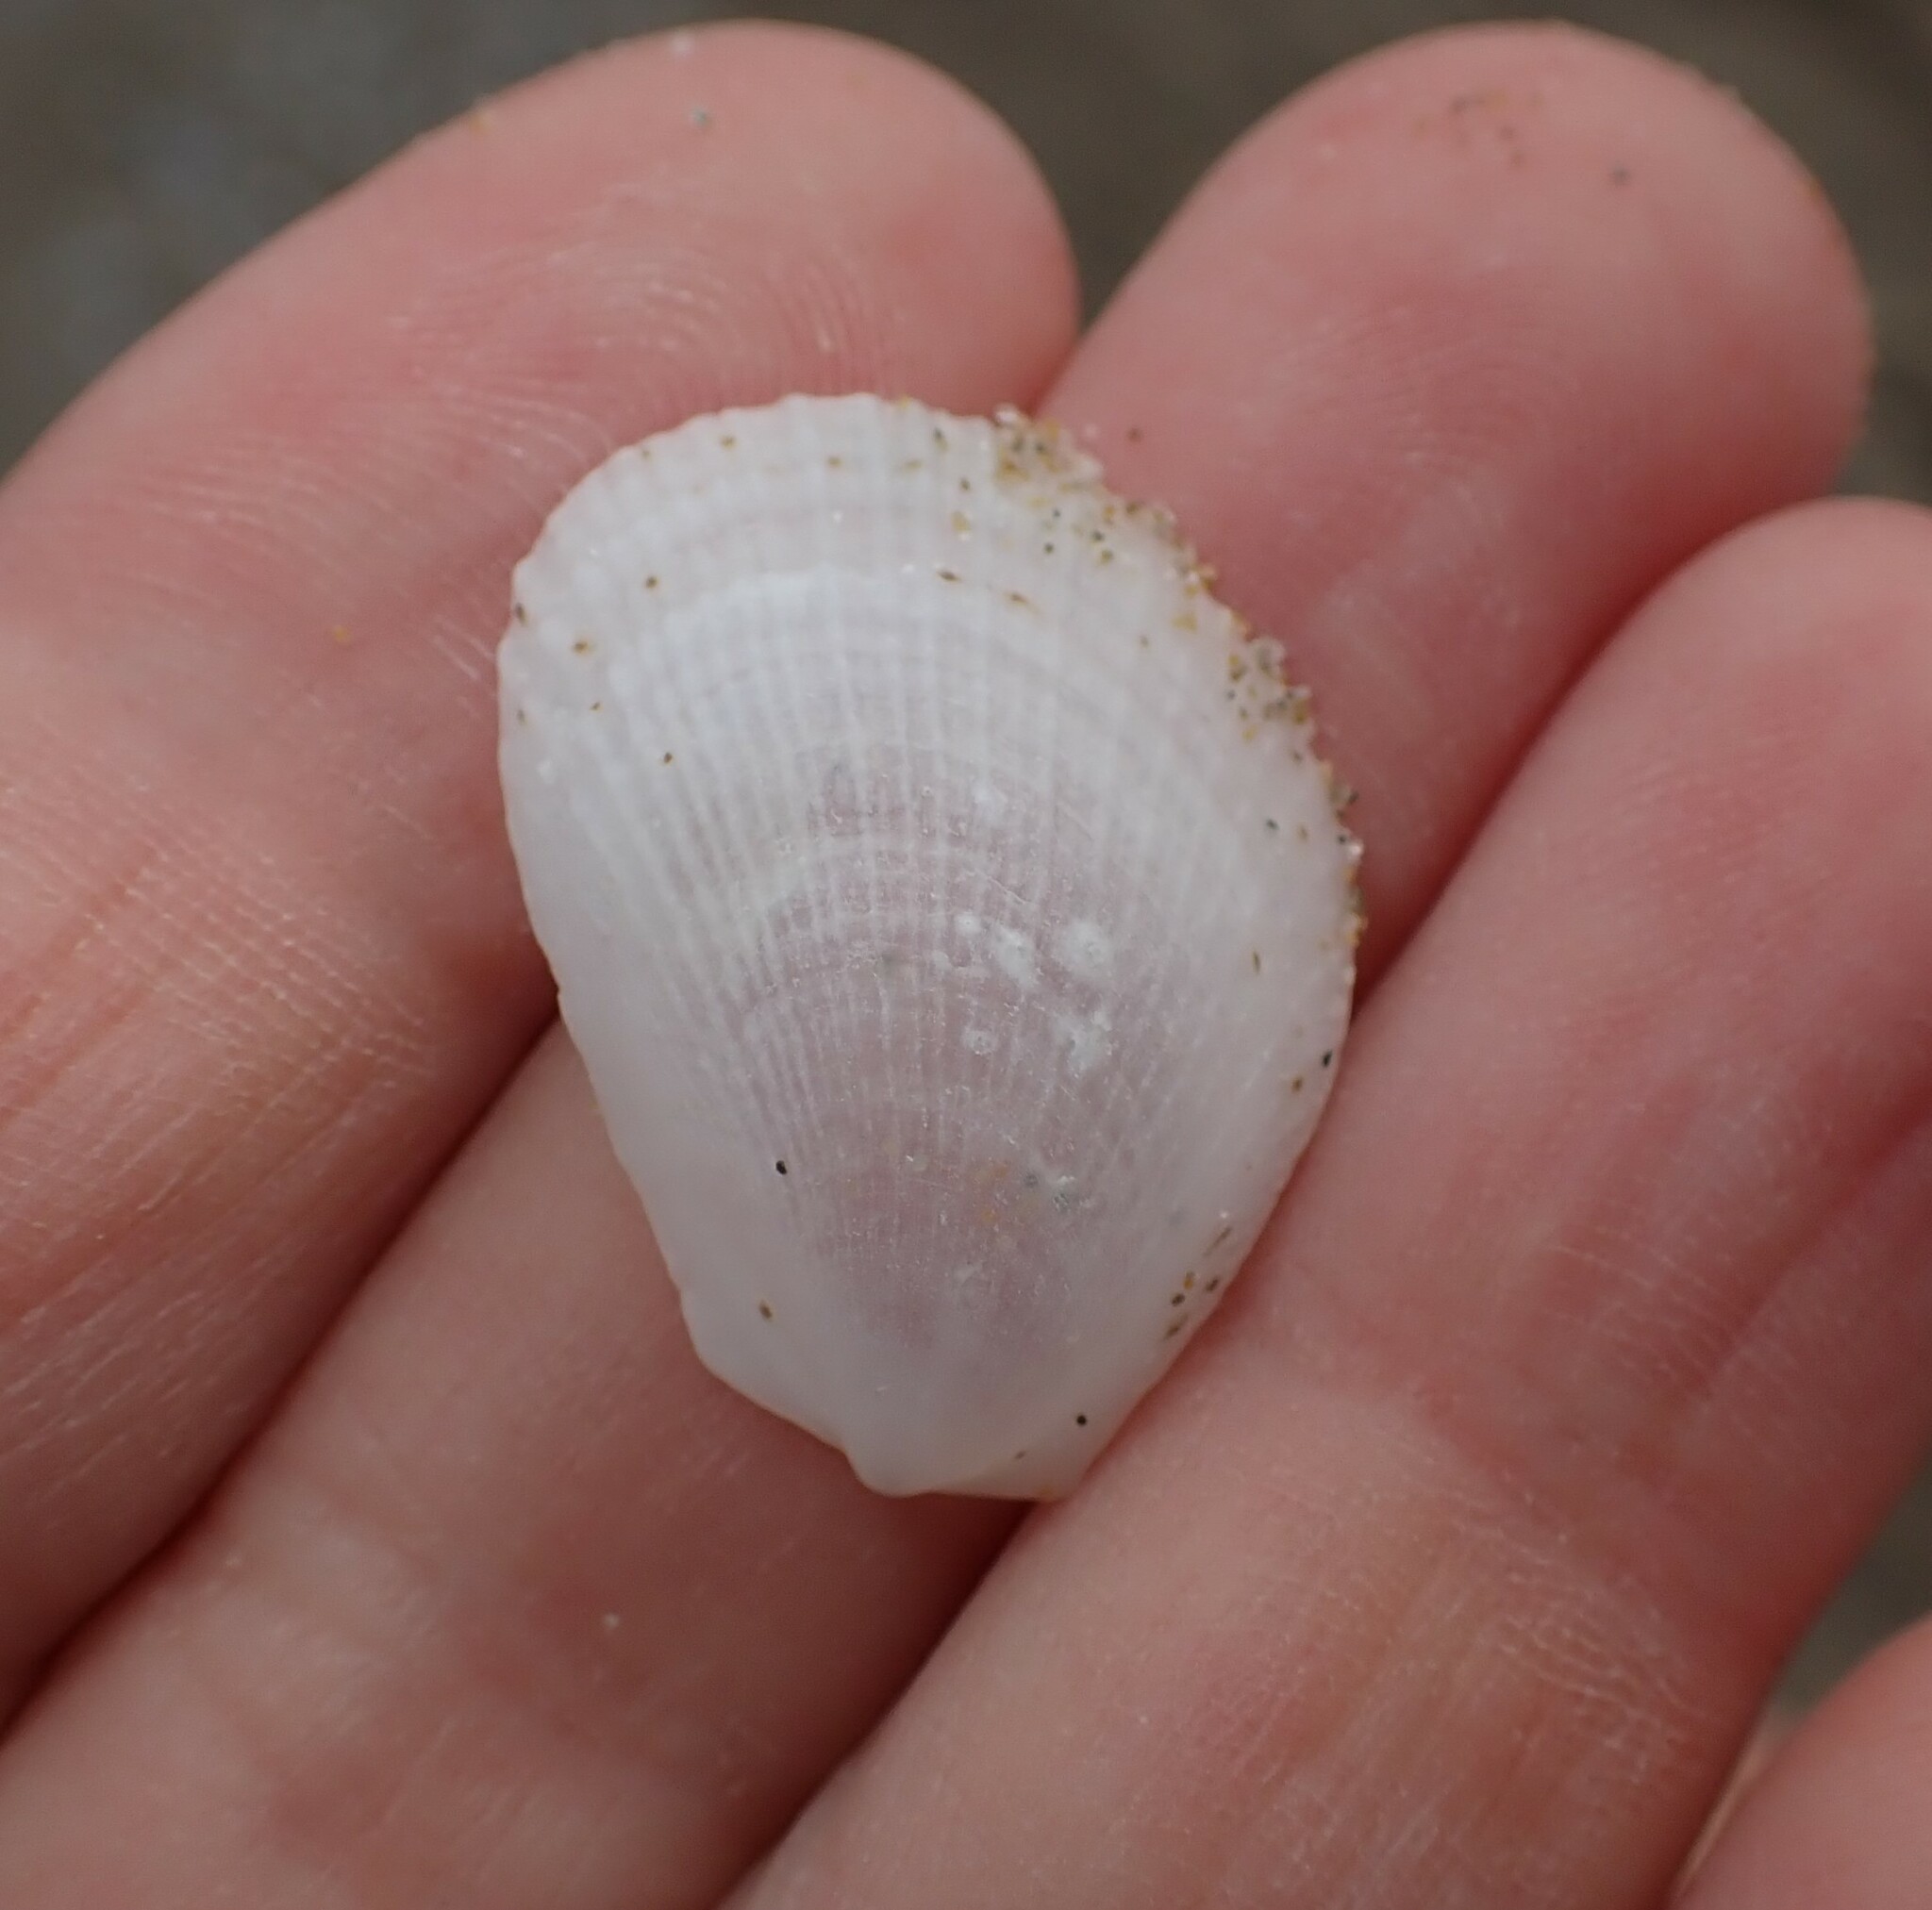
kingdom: Animalia
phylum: Mollusca
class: Bivalvia
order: Limida
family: Limidae
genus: Limaria
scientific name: Limaria tuberculata
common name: File shell
